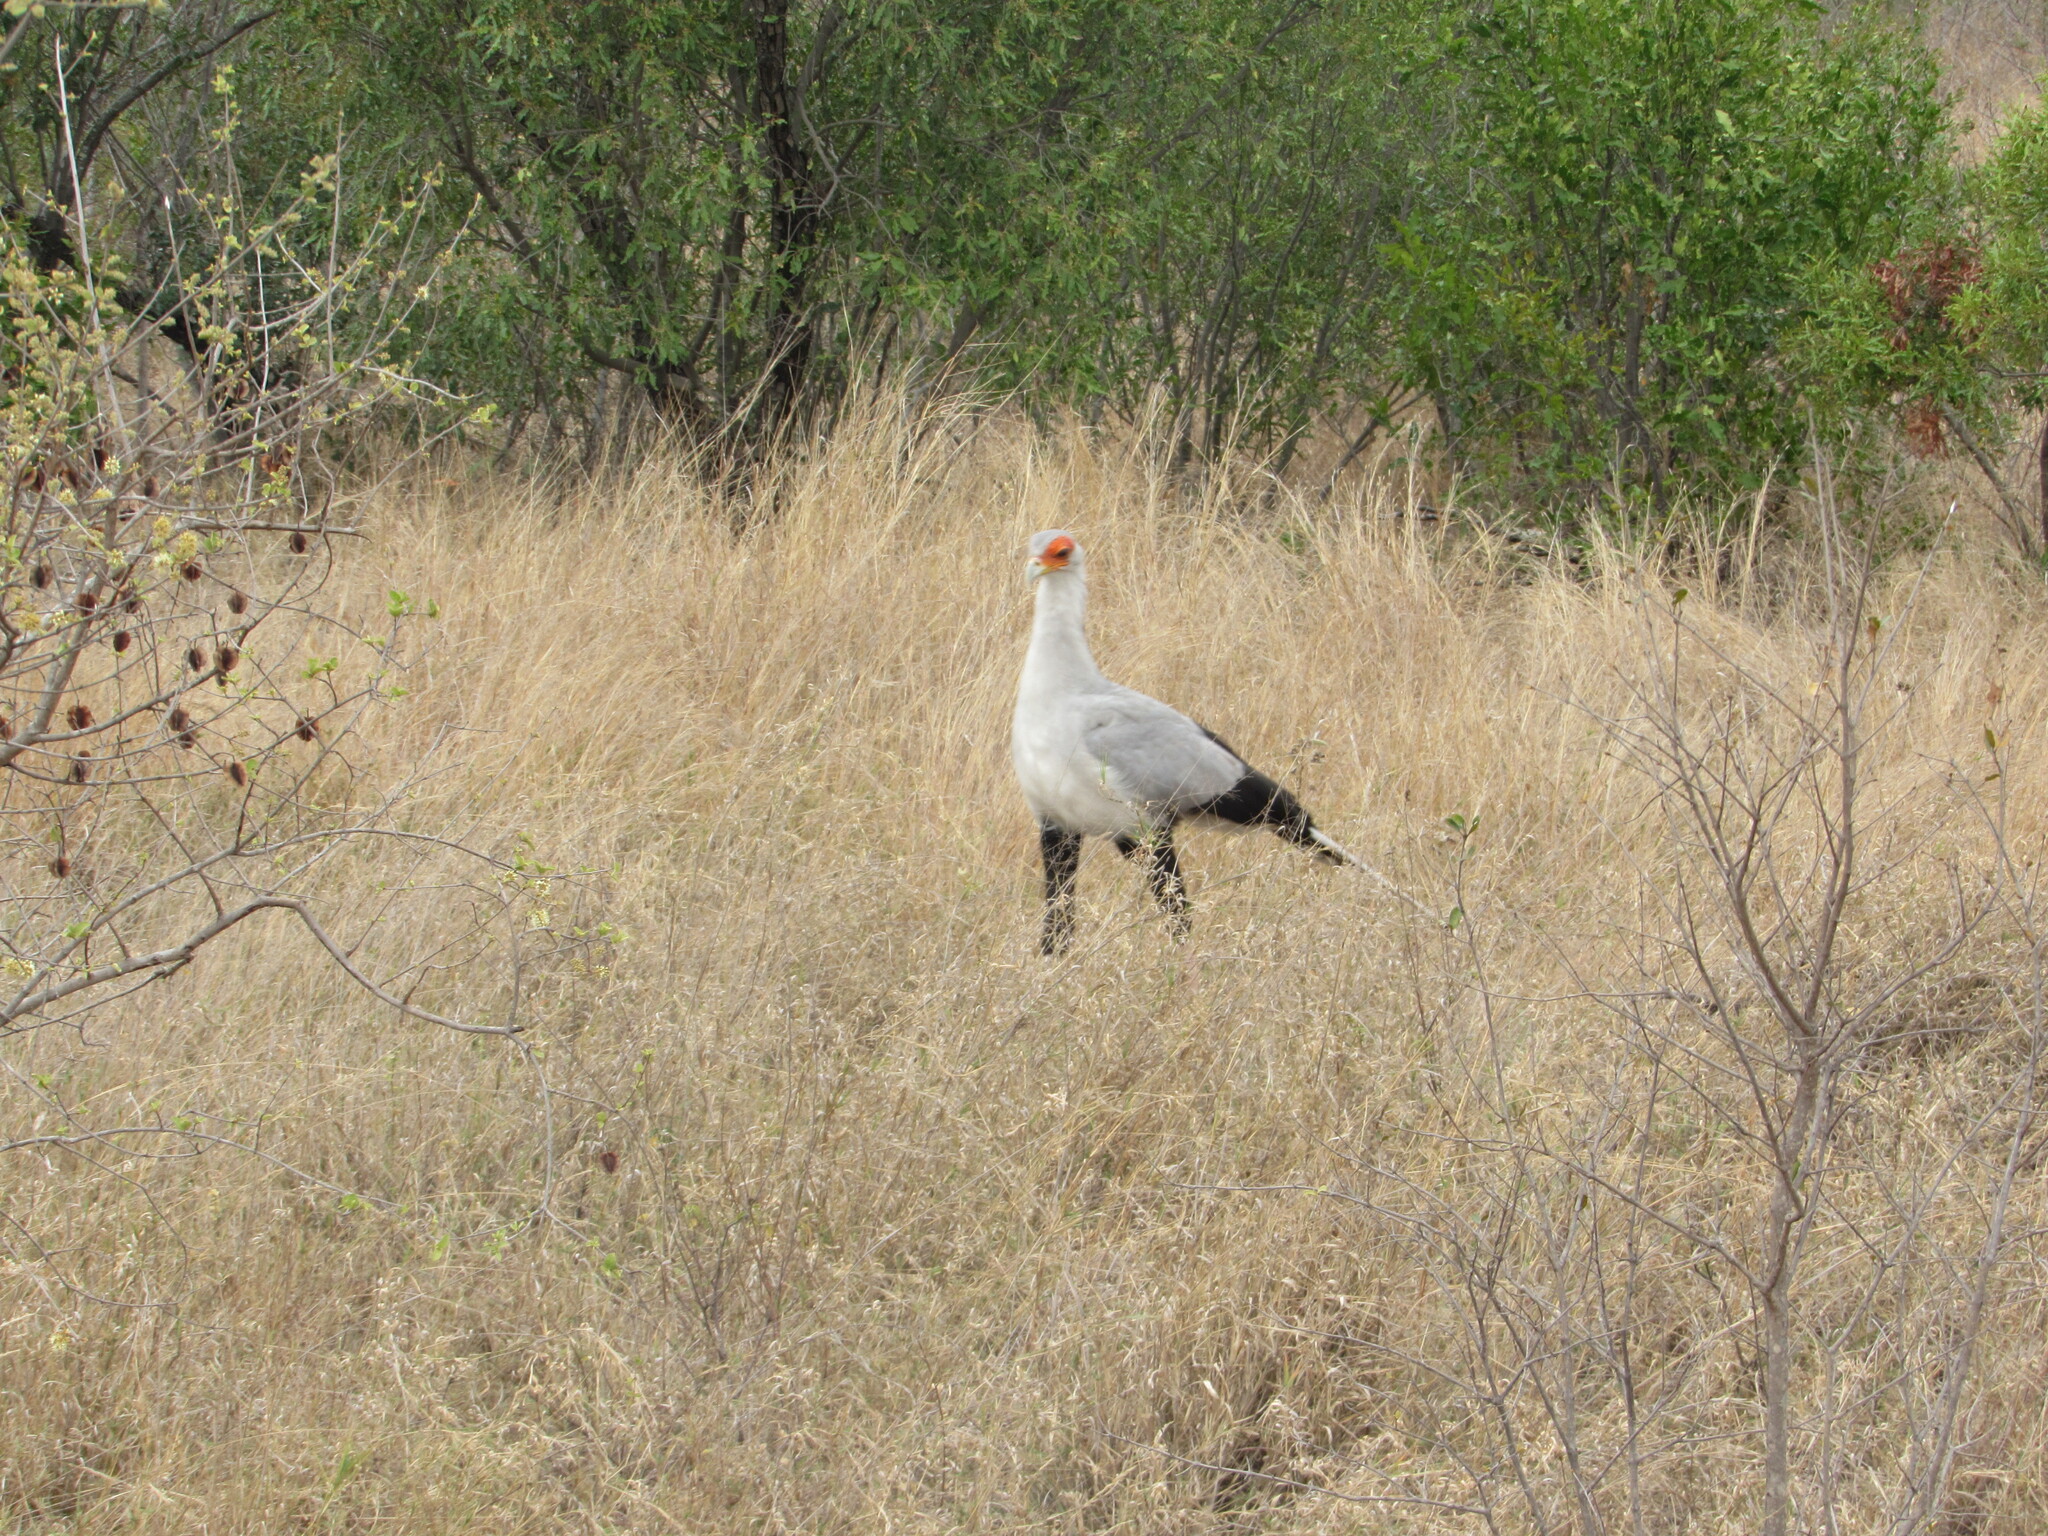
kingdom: Animalia
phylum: Chordata
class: Aves
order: Accipitriformes
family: Sagittariidae
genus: Sagittarius
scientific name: Sagittarius serpentarius
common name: Secretarybird
